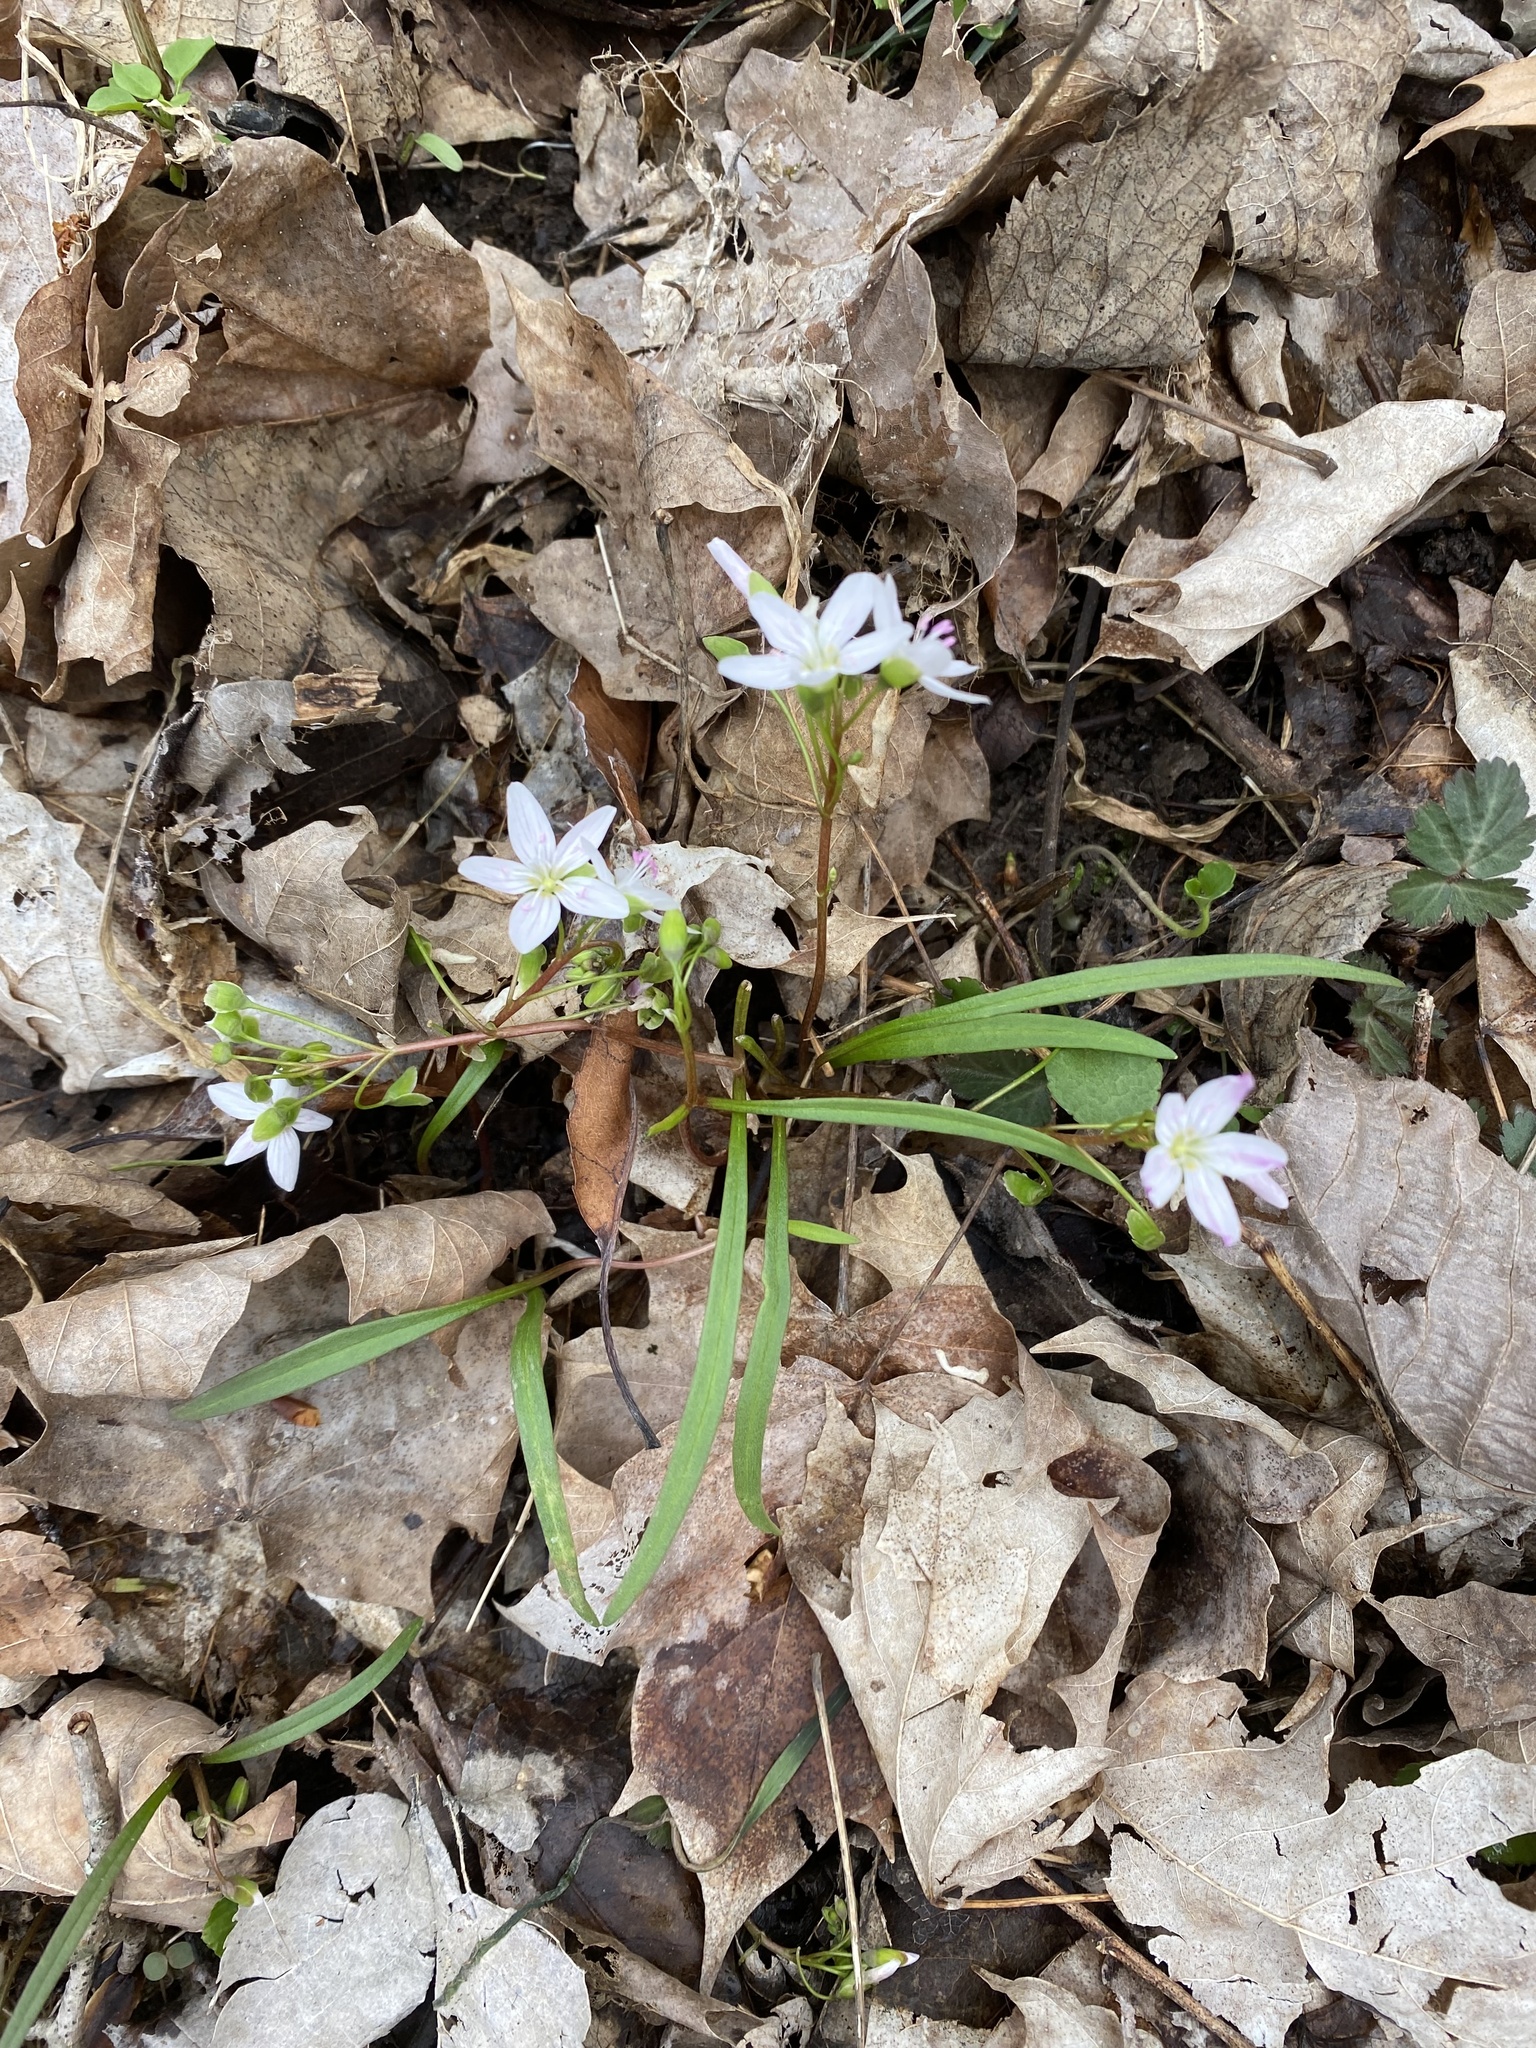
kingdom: Plantae
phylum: Tracheophyta
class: Magnoliopsida
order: Caryophyllales
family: Montiaceae
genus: Claytonia
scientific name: Claytonia virginica
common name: Virginia springbeauty
